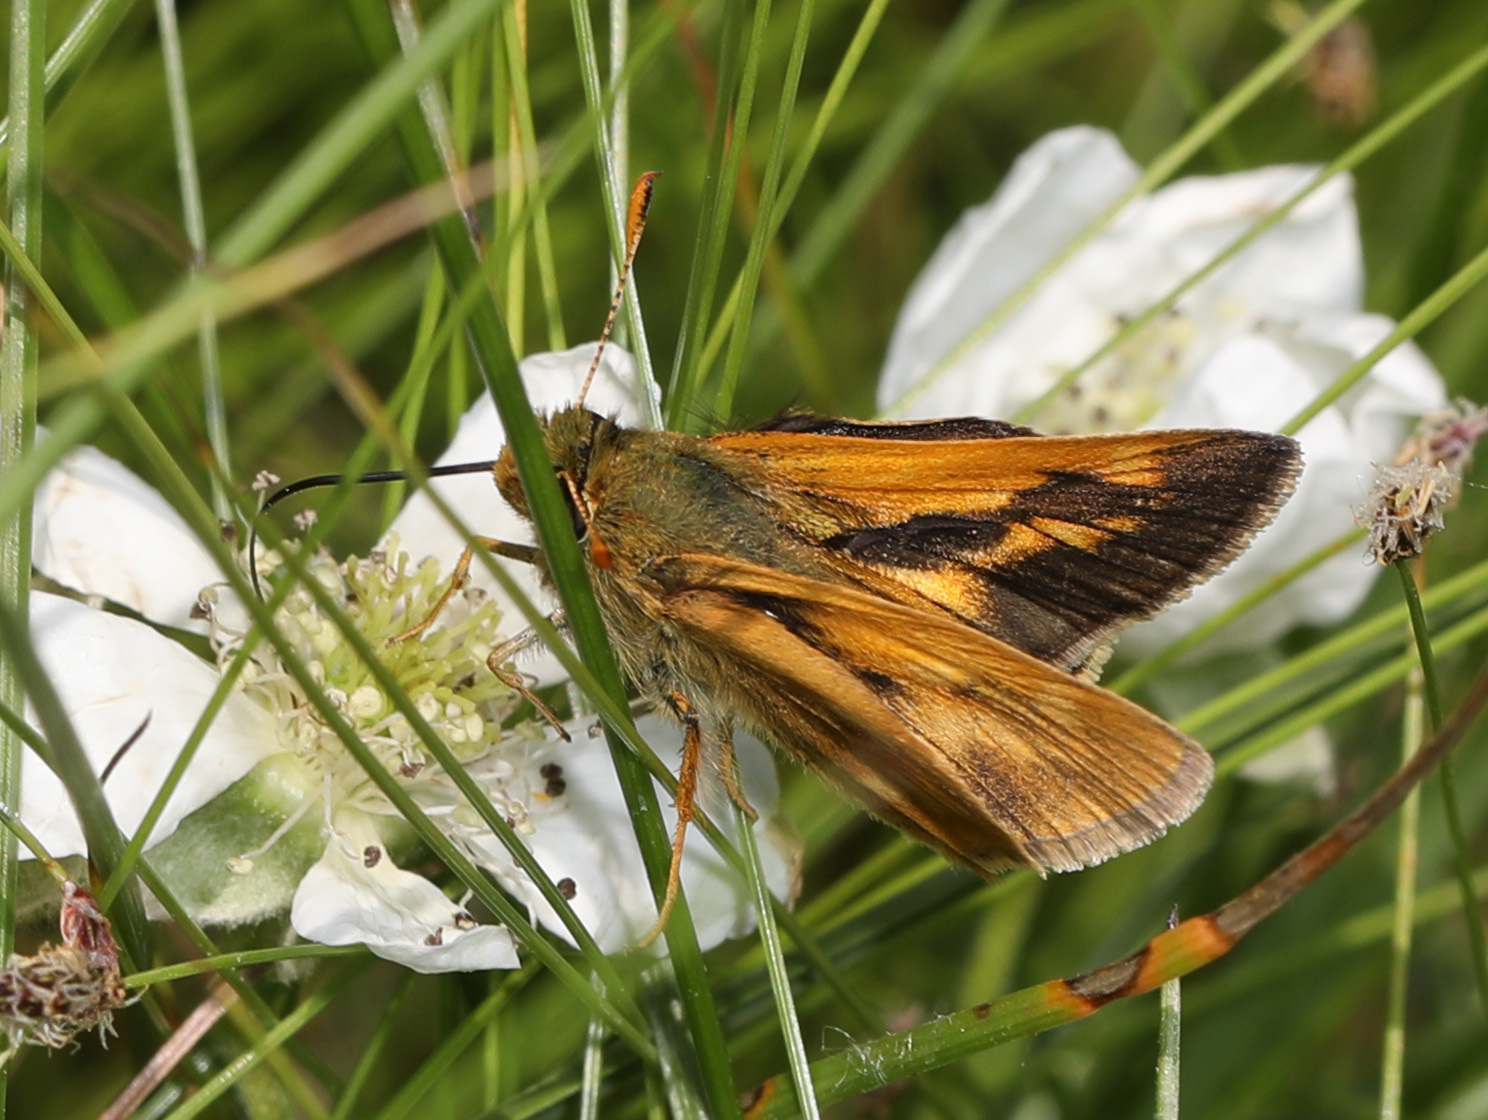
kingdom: Animalia
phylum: Arthropoda
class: Insecta
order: Lepidoptera
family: Hesperiidae
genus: Polites
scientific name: Polites mystic
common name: Long dash
